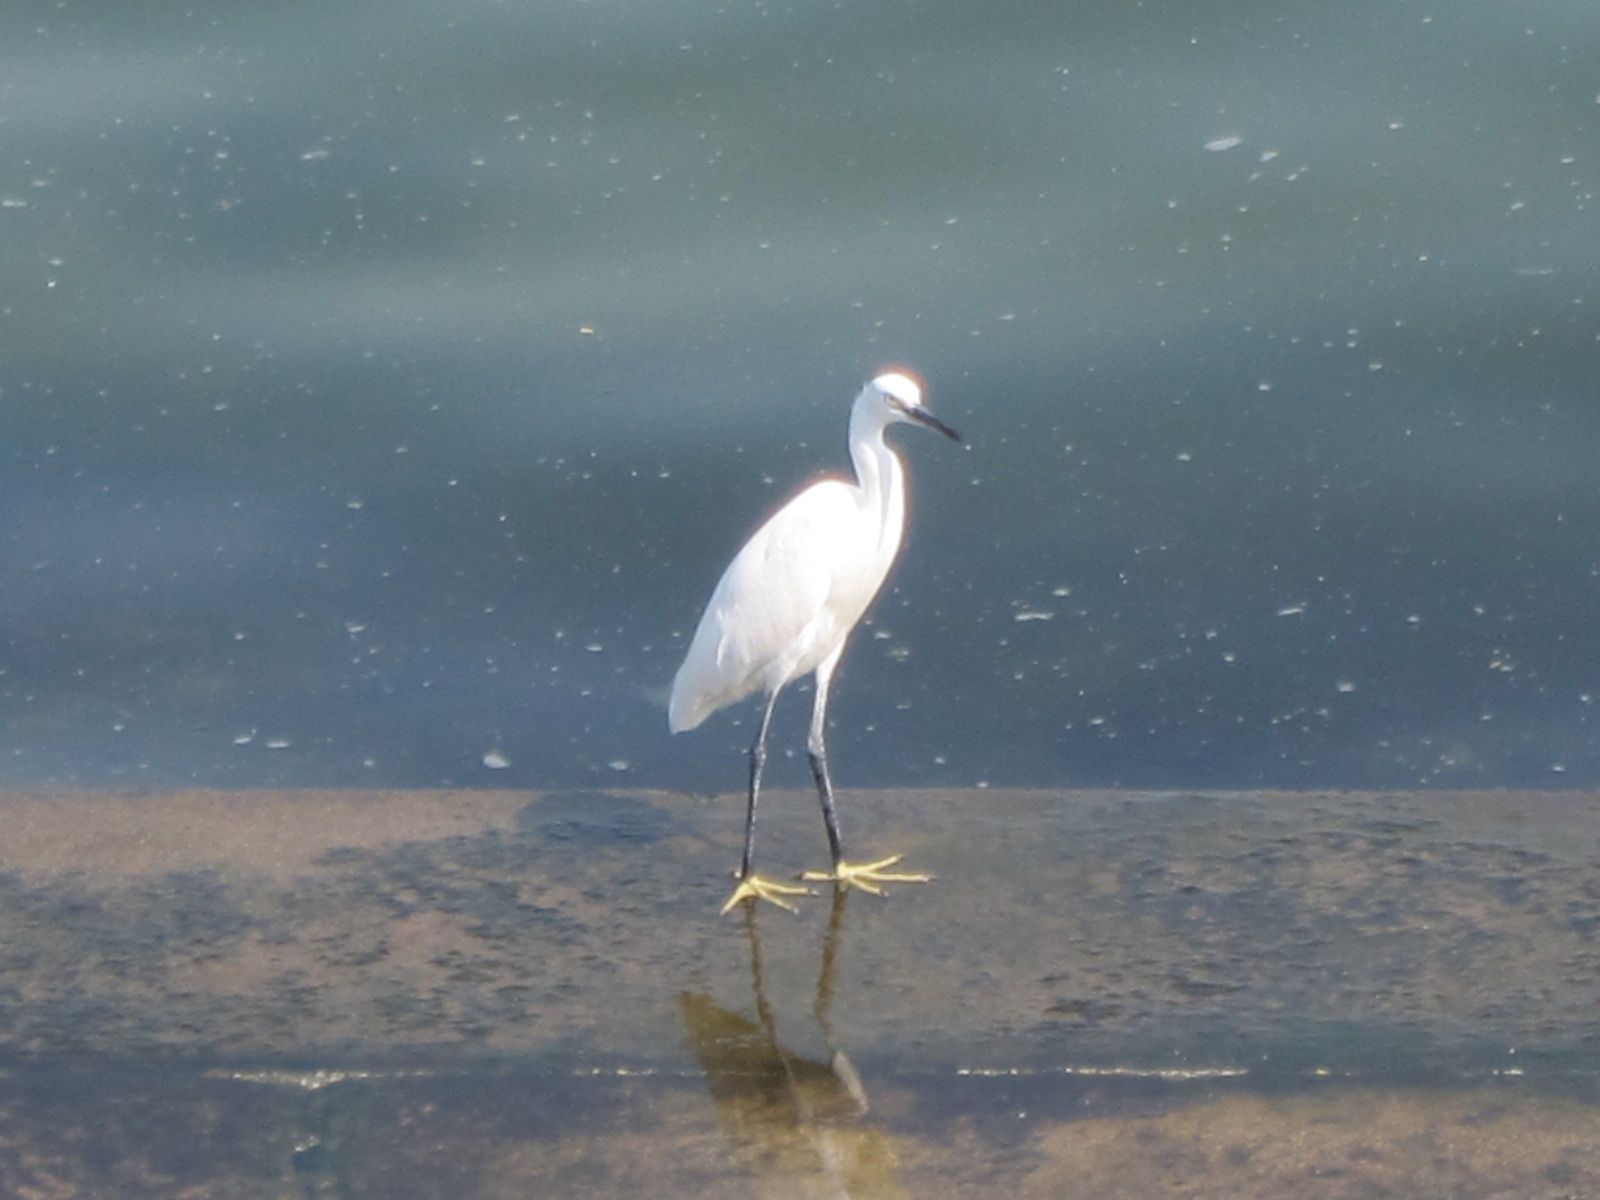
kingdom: Animalia
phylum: Chordata
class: Aves
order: Pelecaniformes
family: Ardeidae
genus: Egretta
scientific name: Egretta garzetta
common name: Little egret
